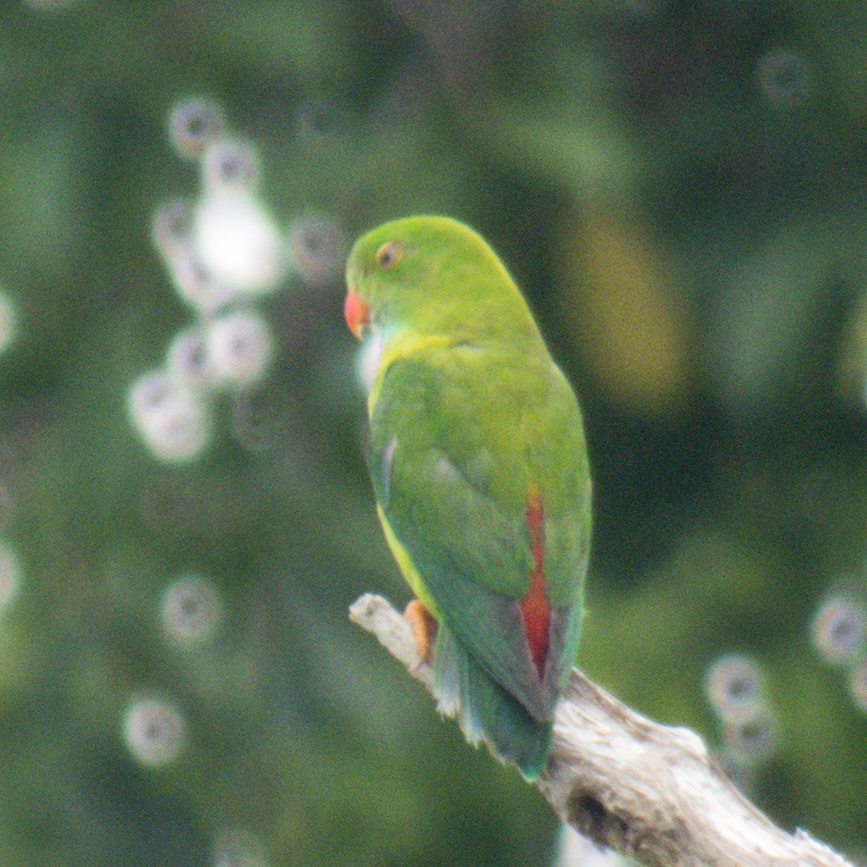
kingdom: Animalia
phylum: Chordata
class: Aves
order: Psittaciformes
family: Psittacidae
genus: Loriculus
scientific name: Loriculus vernalis
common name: Vernal hanging parrot
